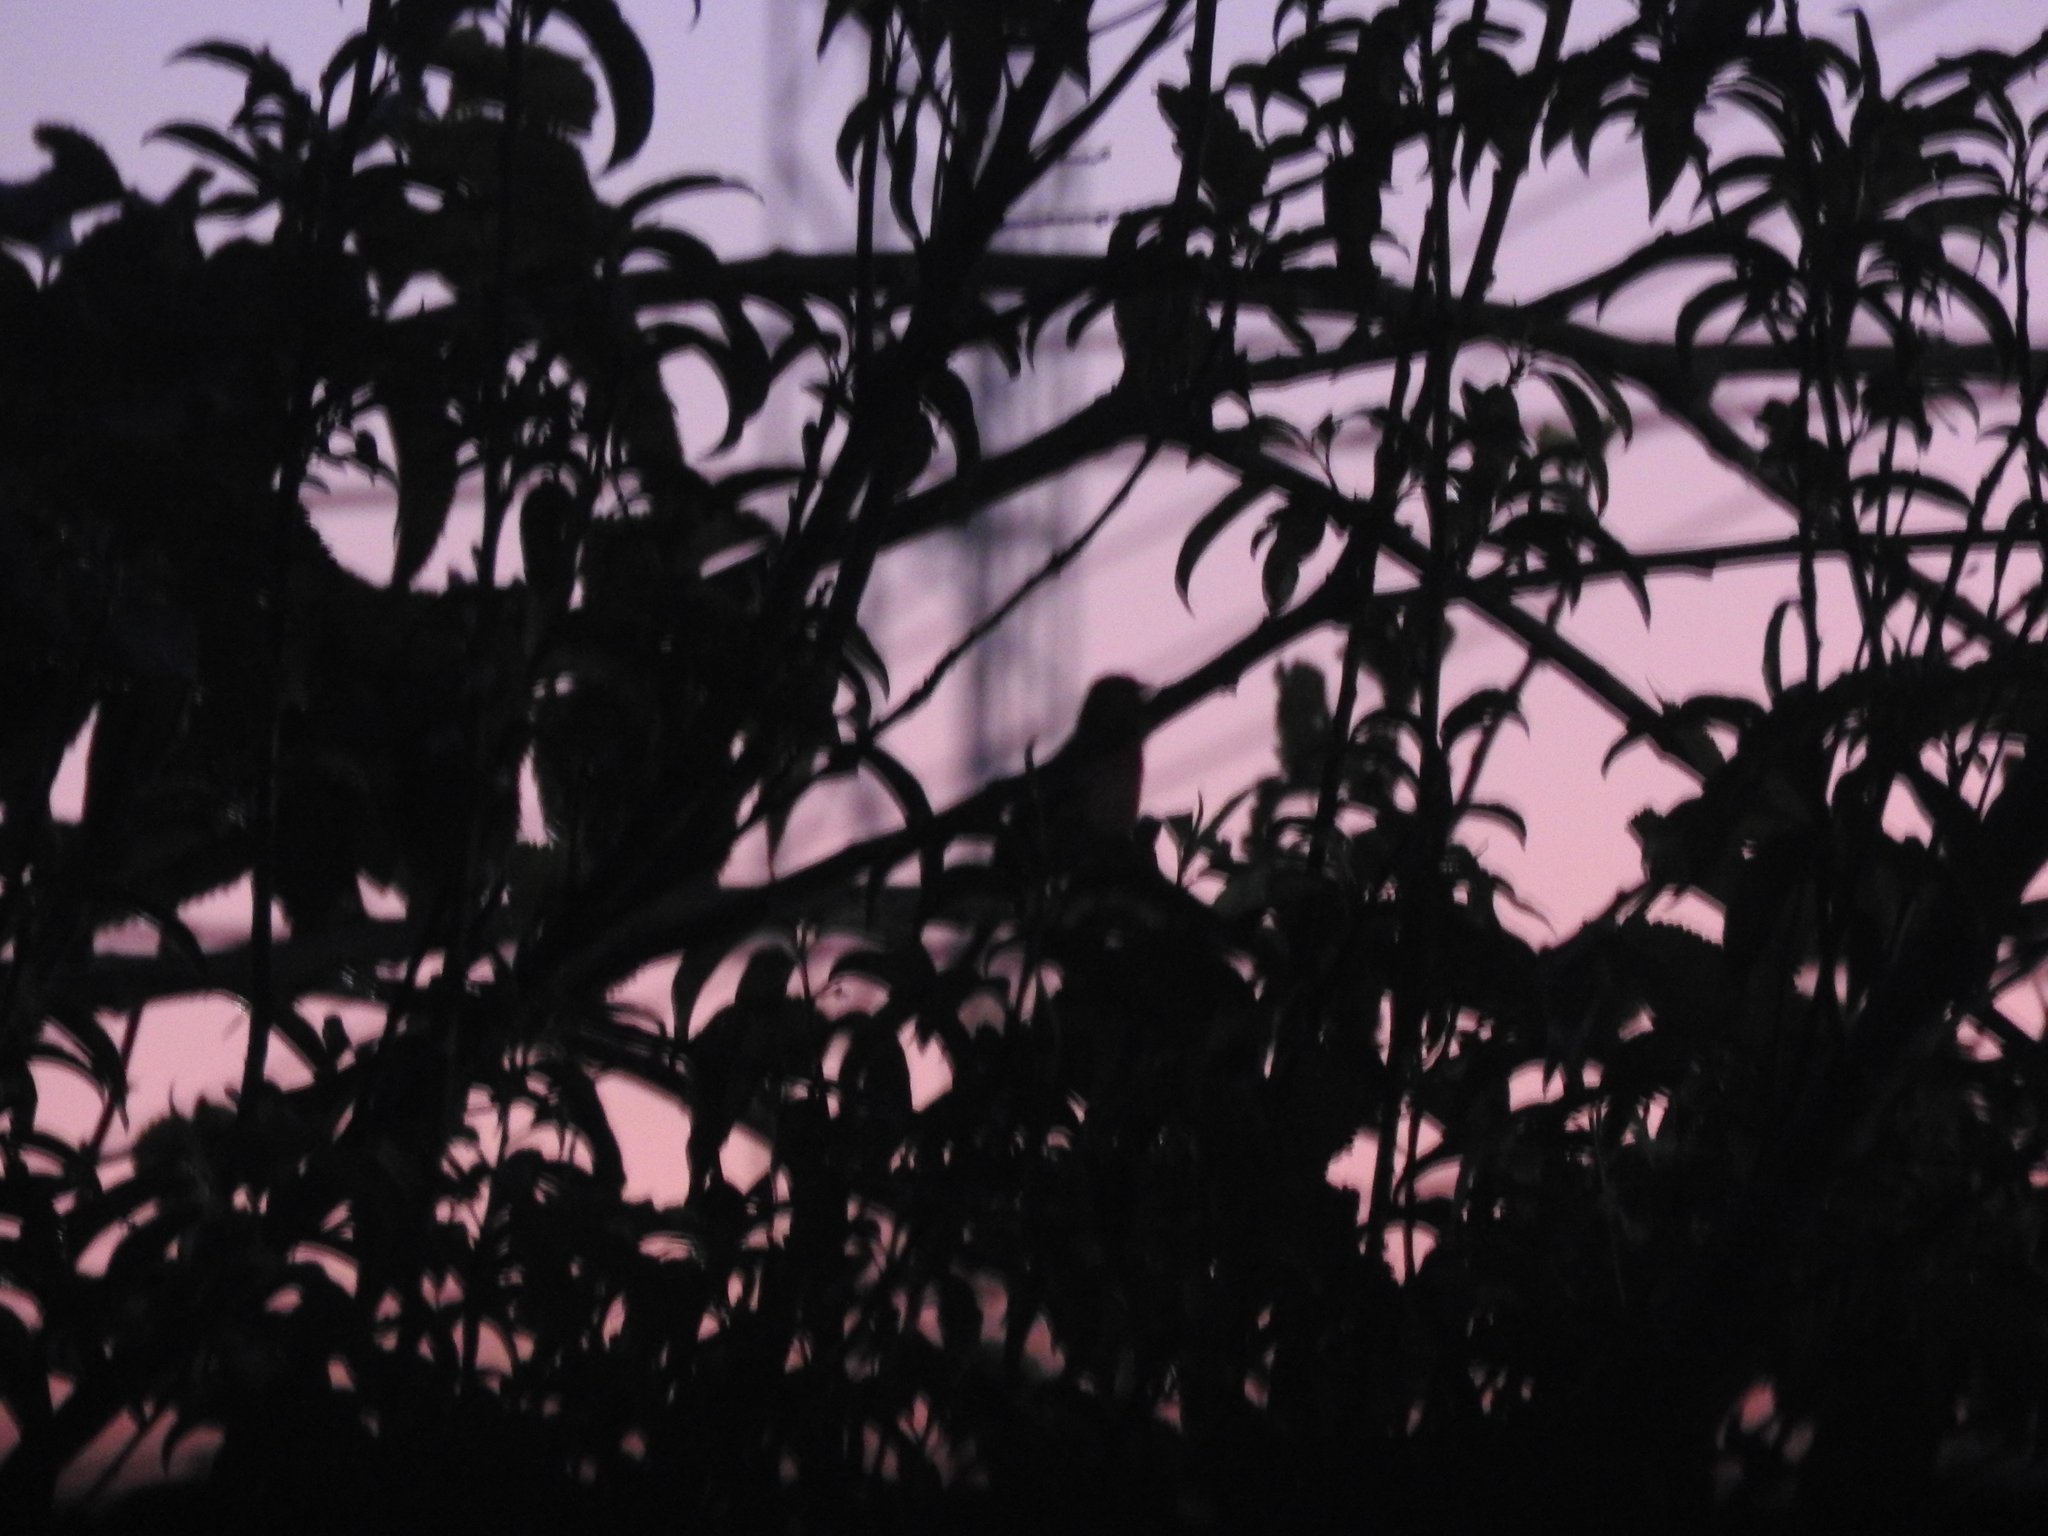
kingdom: Animalia
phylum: Chordata
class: Aves
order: Passeriformes
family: Fringillidae
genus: Haemorhous
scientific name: Haemorhous mexicanus
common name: House finch
